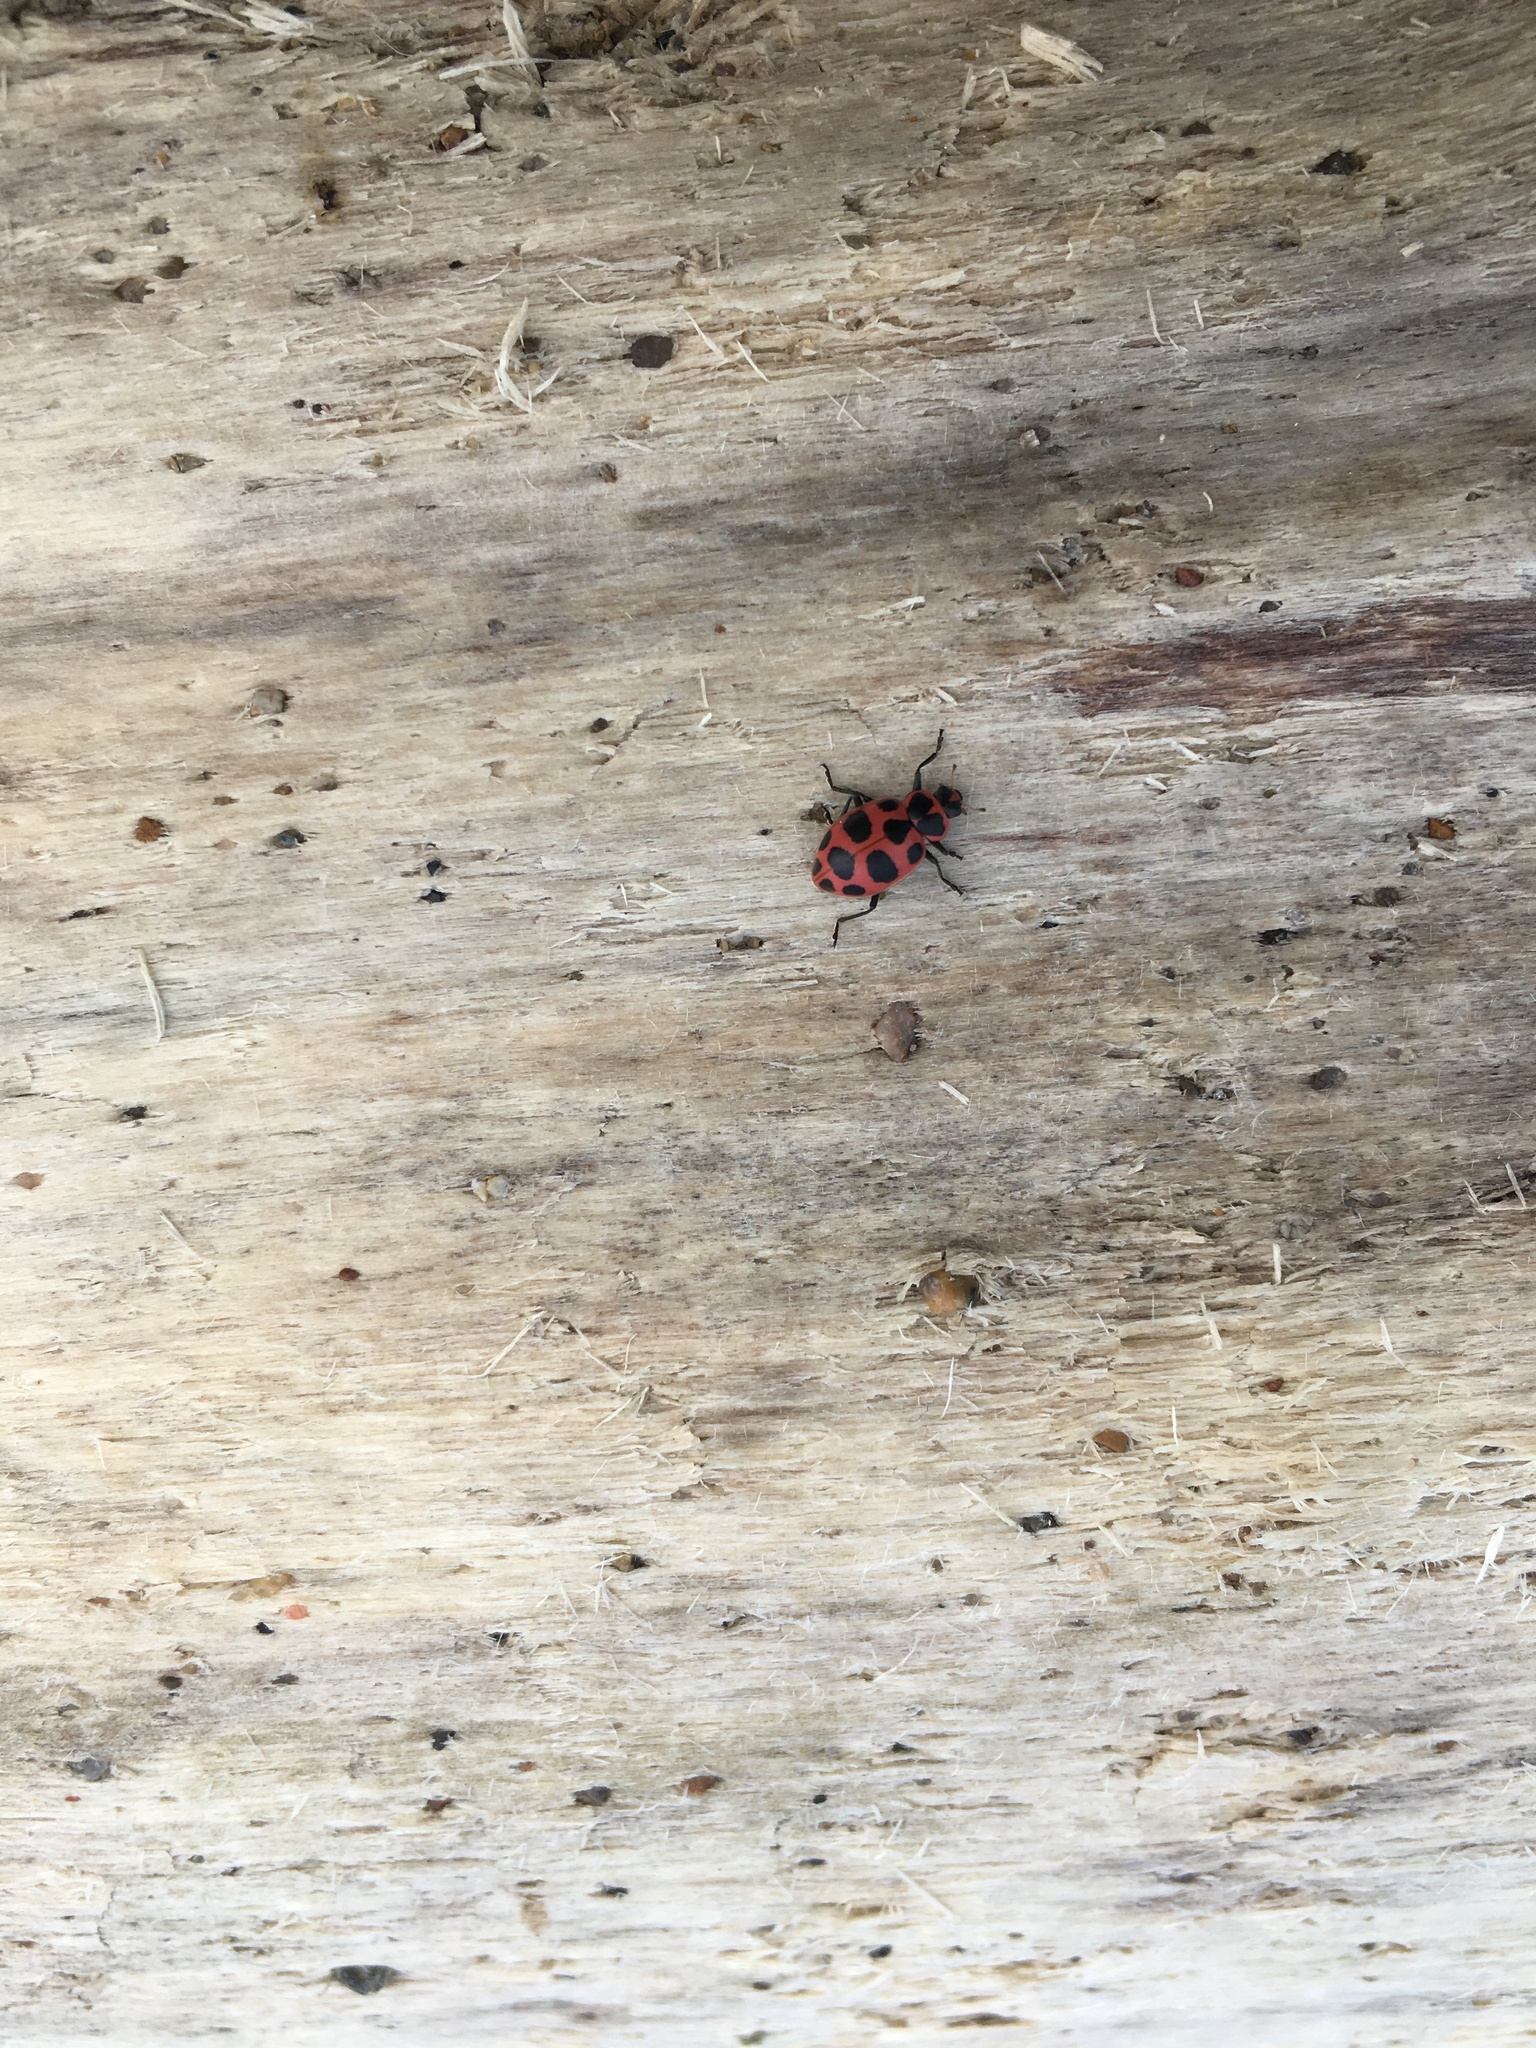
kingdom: Animalia
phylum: Arthropoda
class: Insecta
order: Coleoptera
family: Coccinellidae
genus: Coleomegilla
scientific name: Coleomegilla maculata
